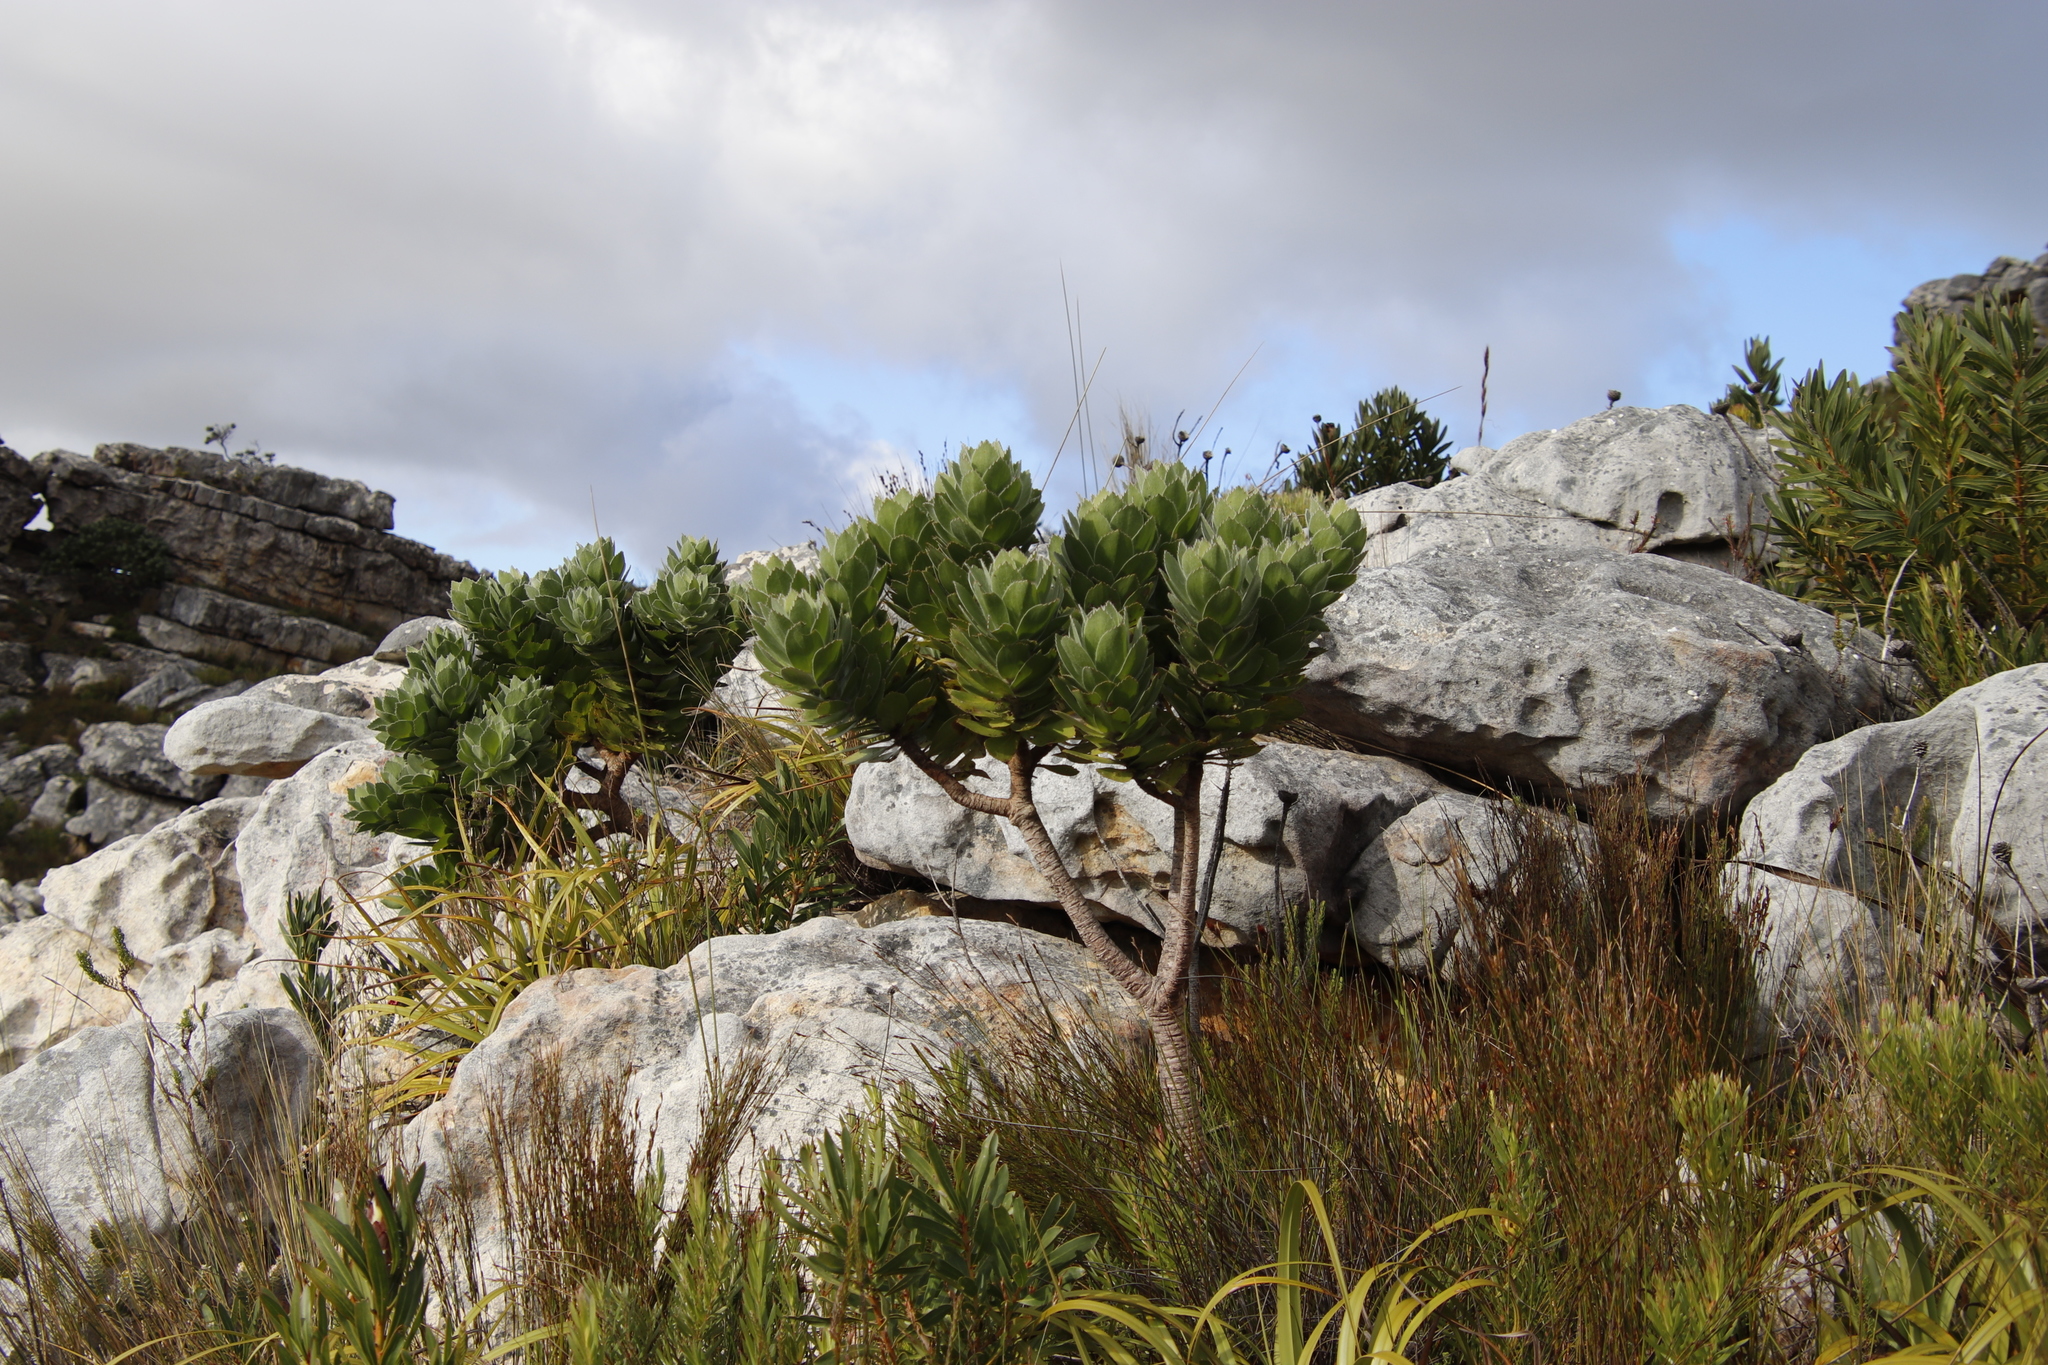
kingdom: Plantae
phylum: Tracheophyta
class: Magnoliopsida
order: Proteales
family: Proteaceae
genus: Leucospermum
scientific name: Leucospermum conocarpodendron
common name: Tree pincushion
